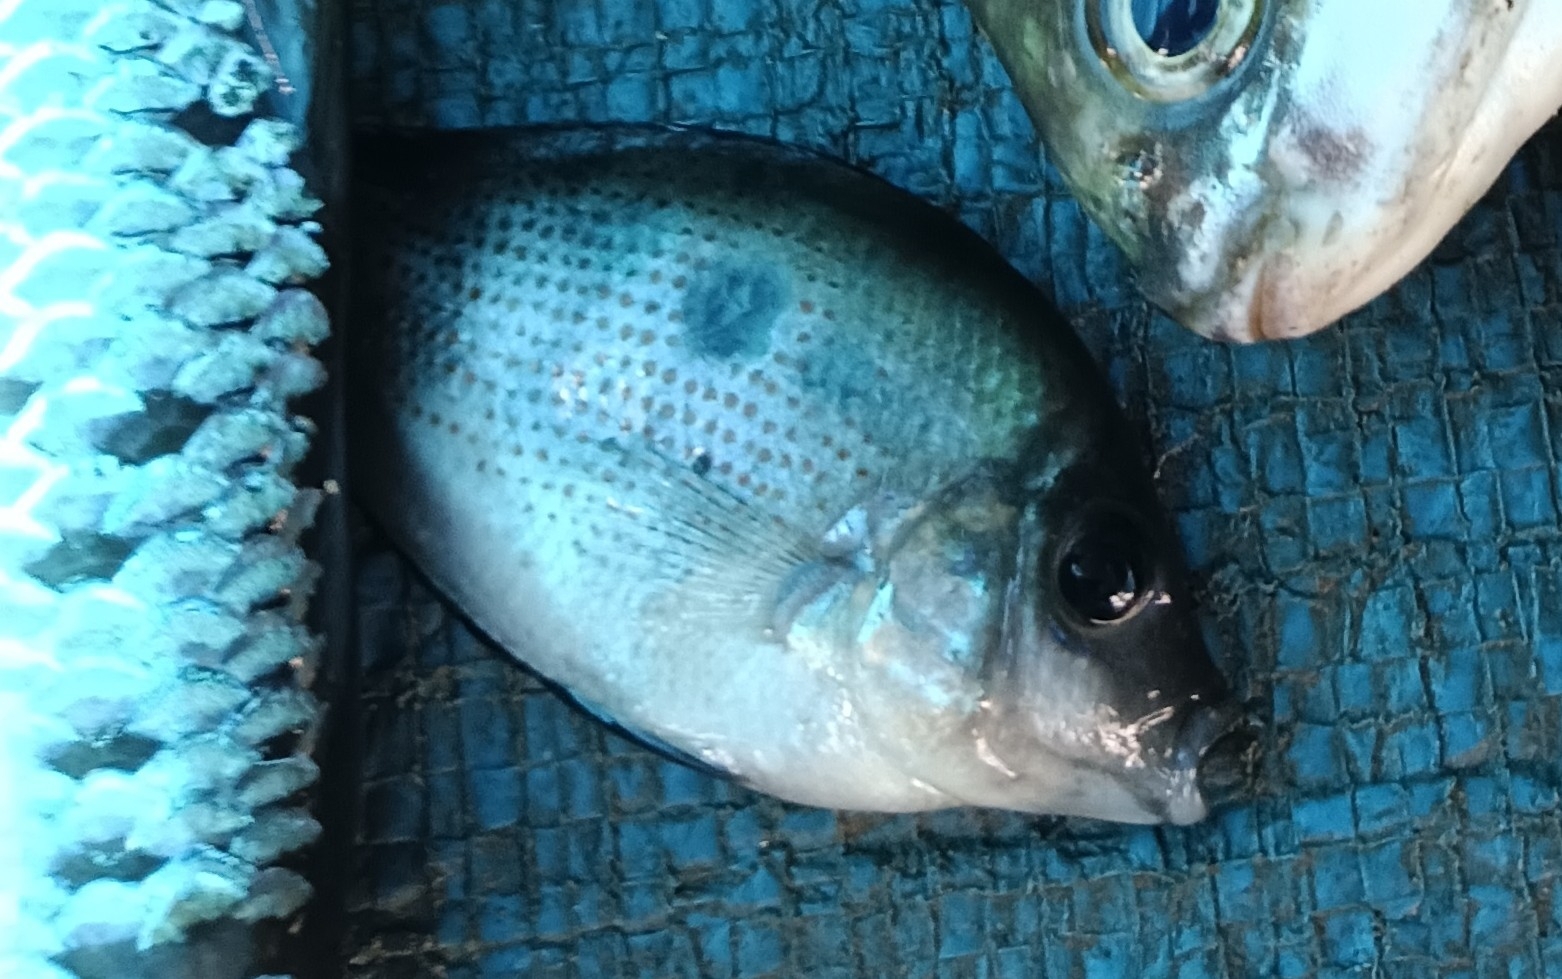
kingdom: Animalia
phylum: Chordata
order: Perciformes
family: Cichlidae
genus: Etroplus
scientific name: Etroplus maculatus
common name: Orange chromide
